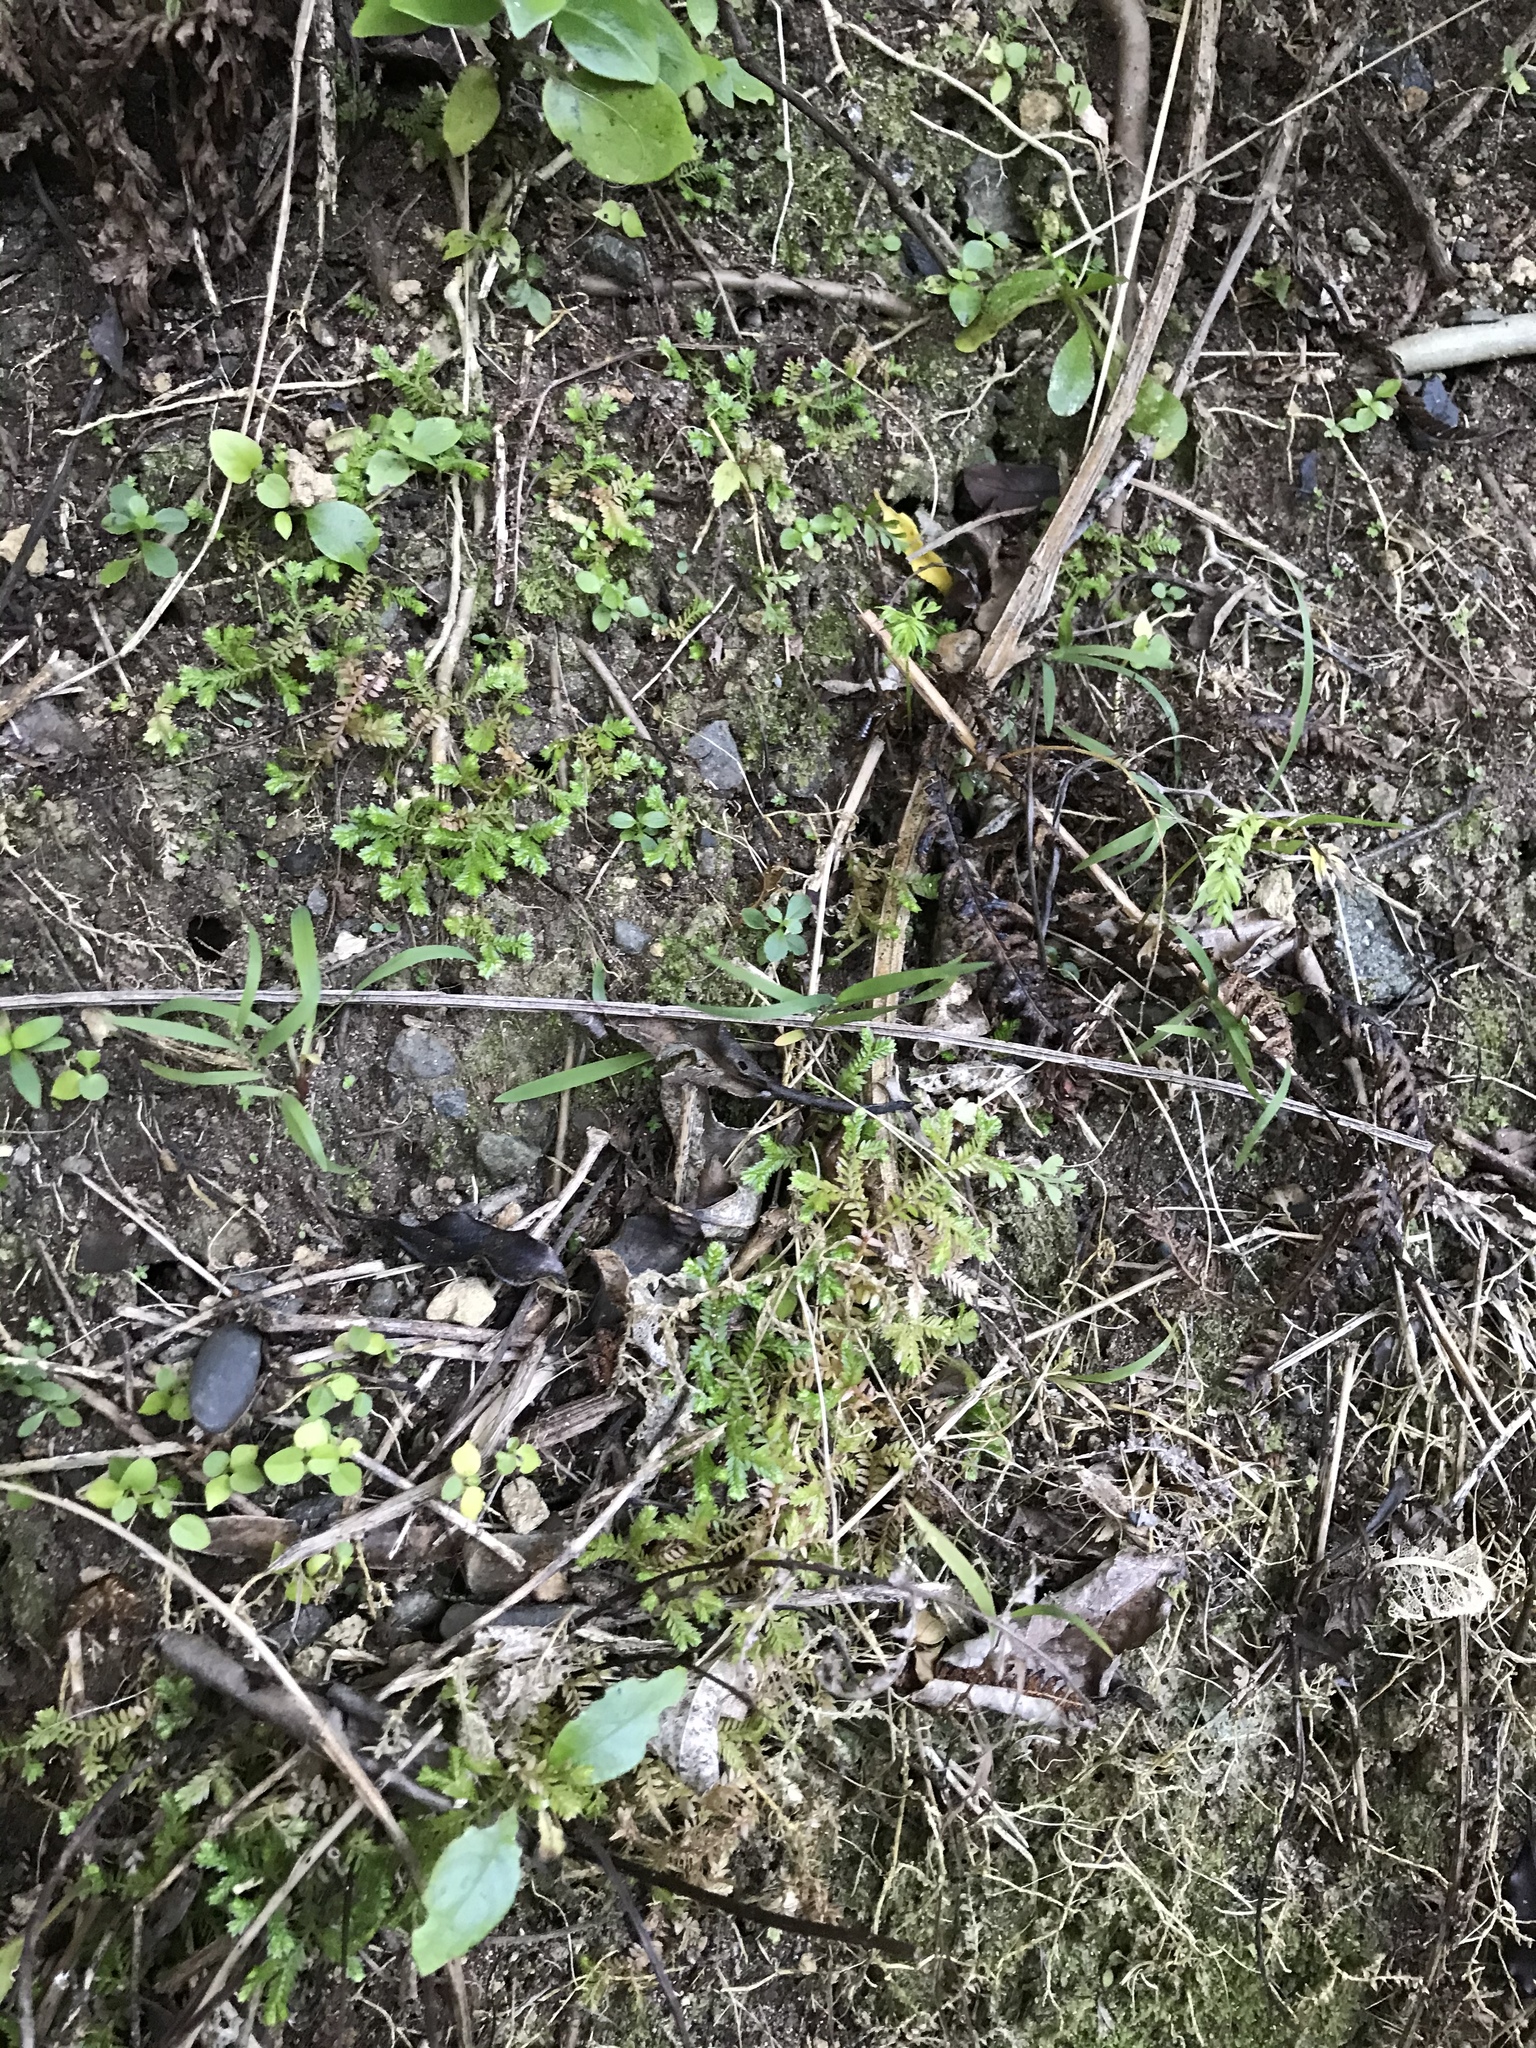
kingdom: Plantae
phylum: Tracheophyta
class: Lycopodiopsida
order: Selaginellales
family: Selaginellaceae
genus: Selaginella
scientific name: Selaginella kraussiana
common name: Krauss' spikemoss
